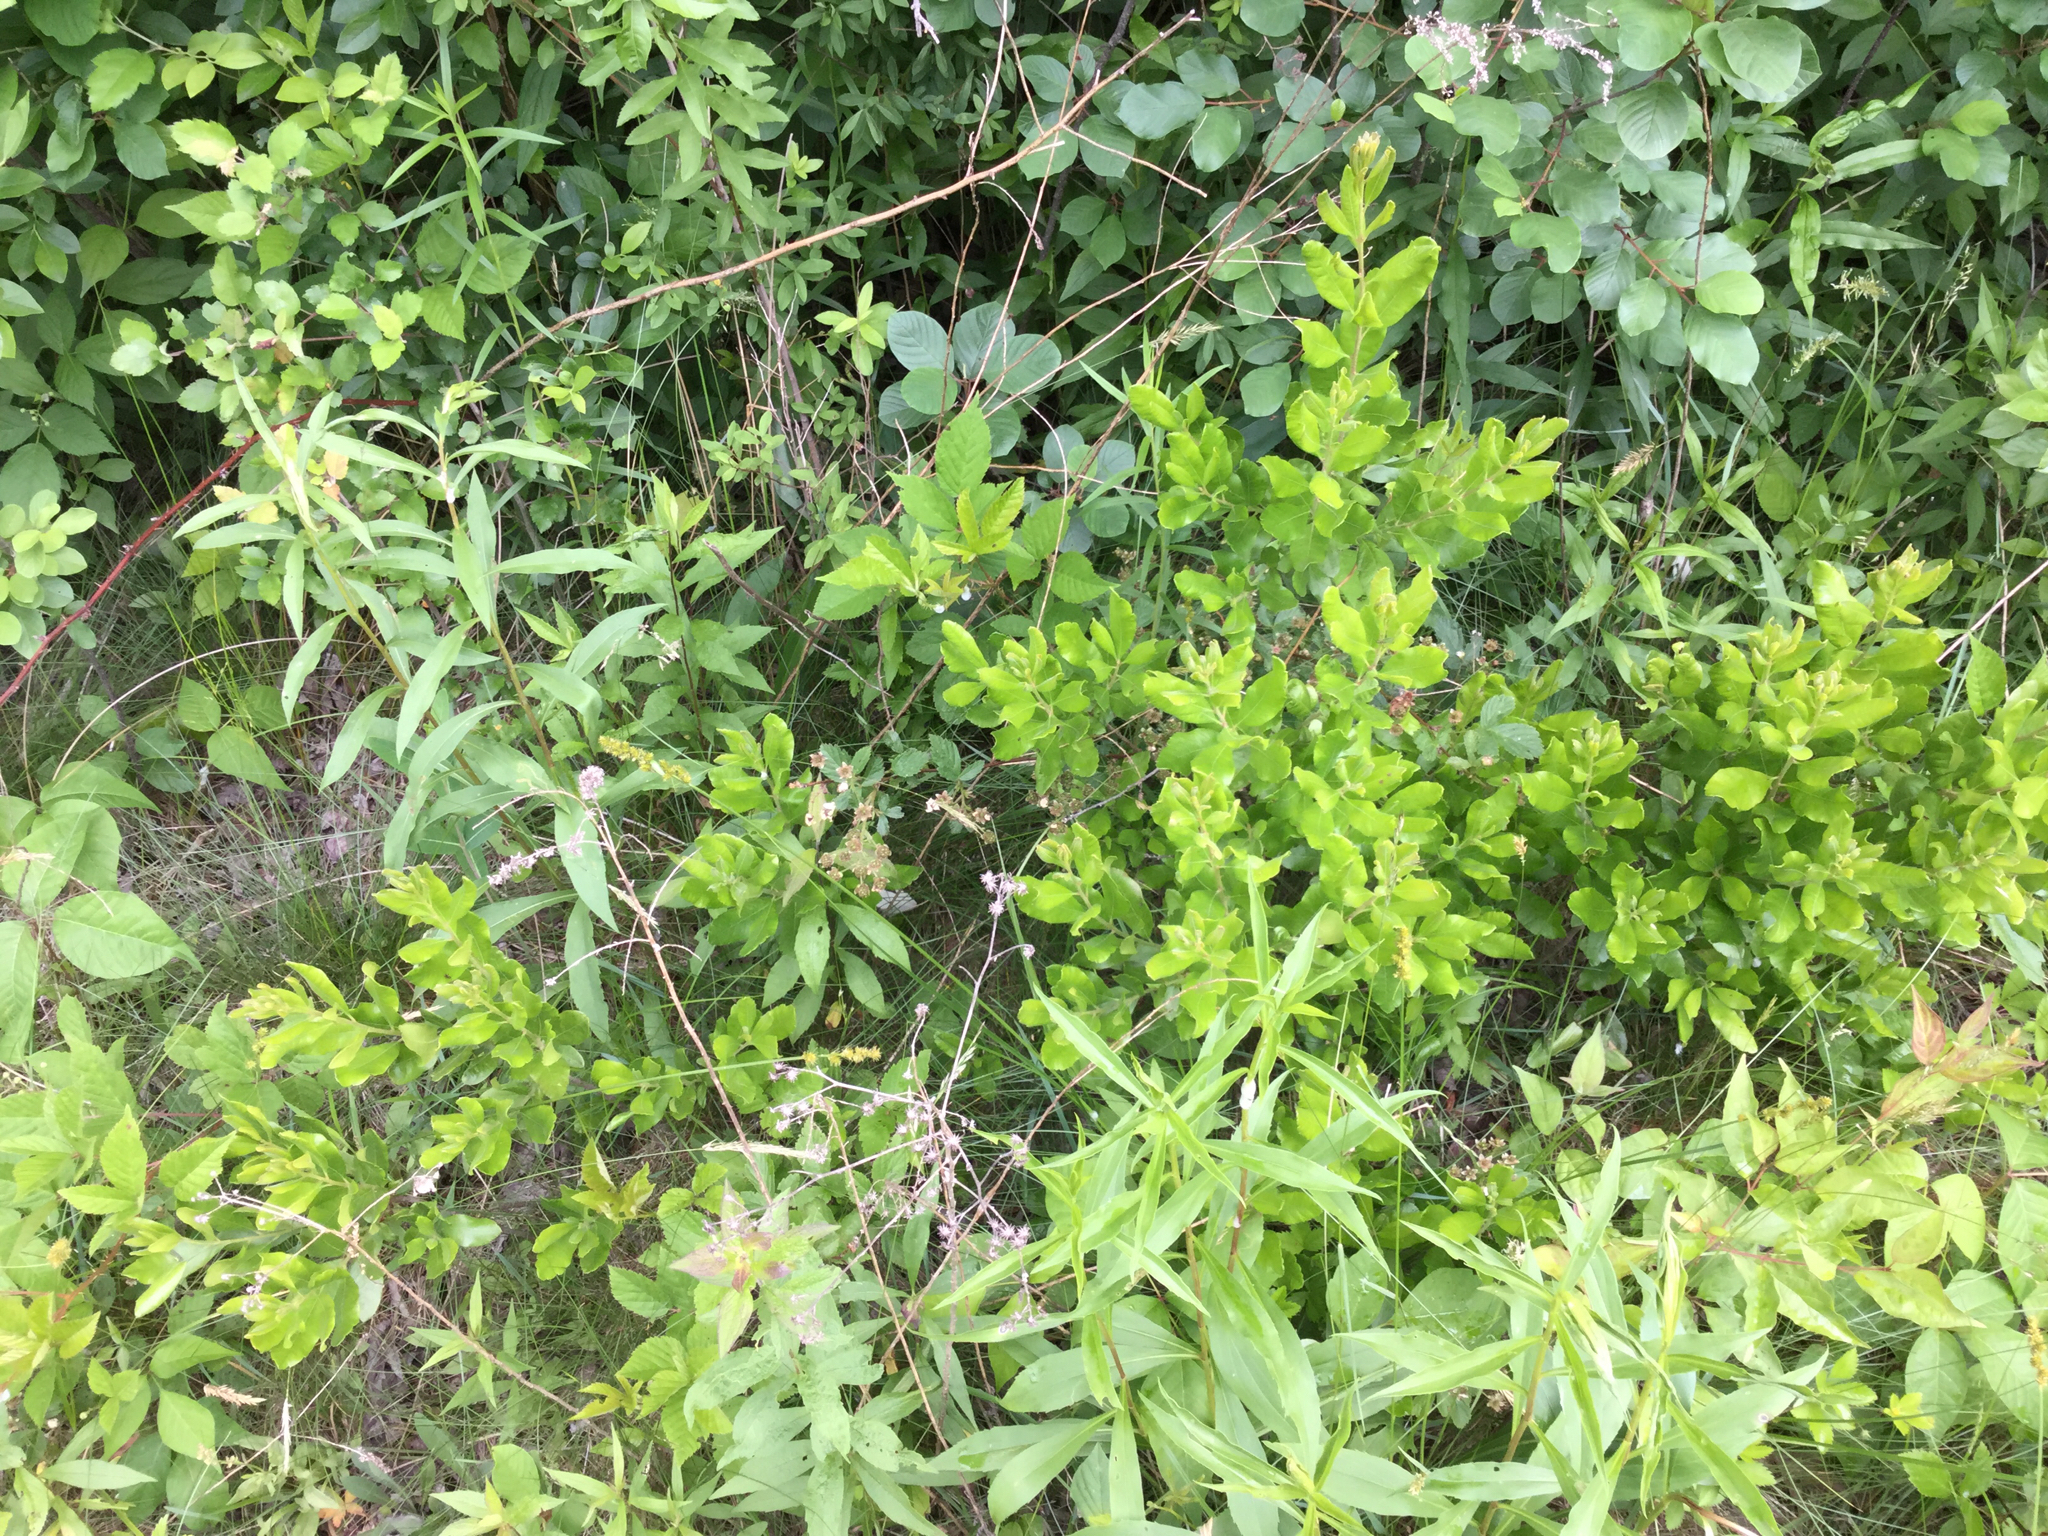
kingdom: Plantae
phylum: Tracheophyta
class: Magnoliopsida
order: Fagales
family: Myricaceae
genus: Morella
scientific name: Morella pensylvanica
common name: Northern bayberry
